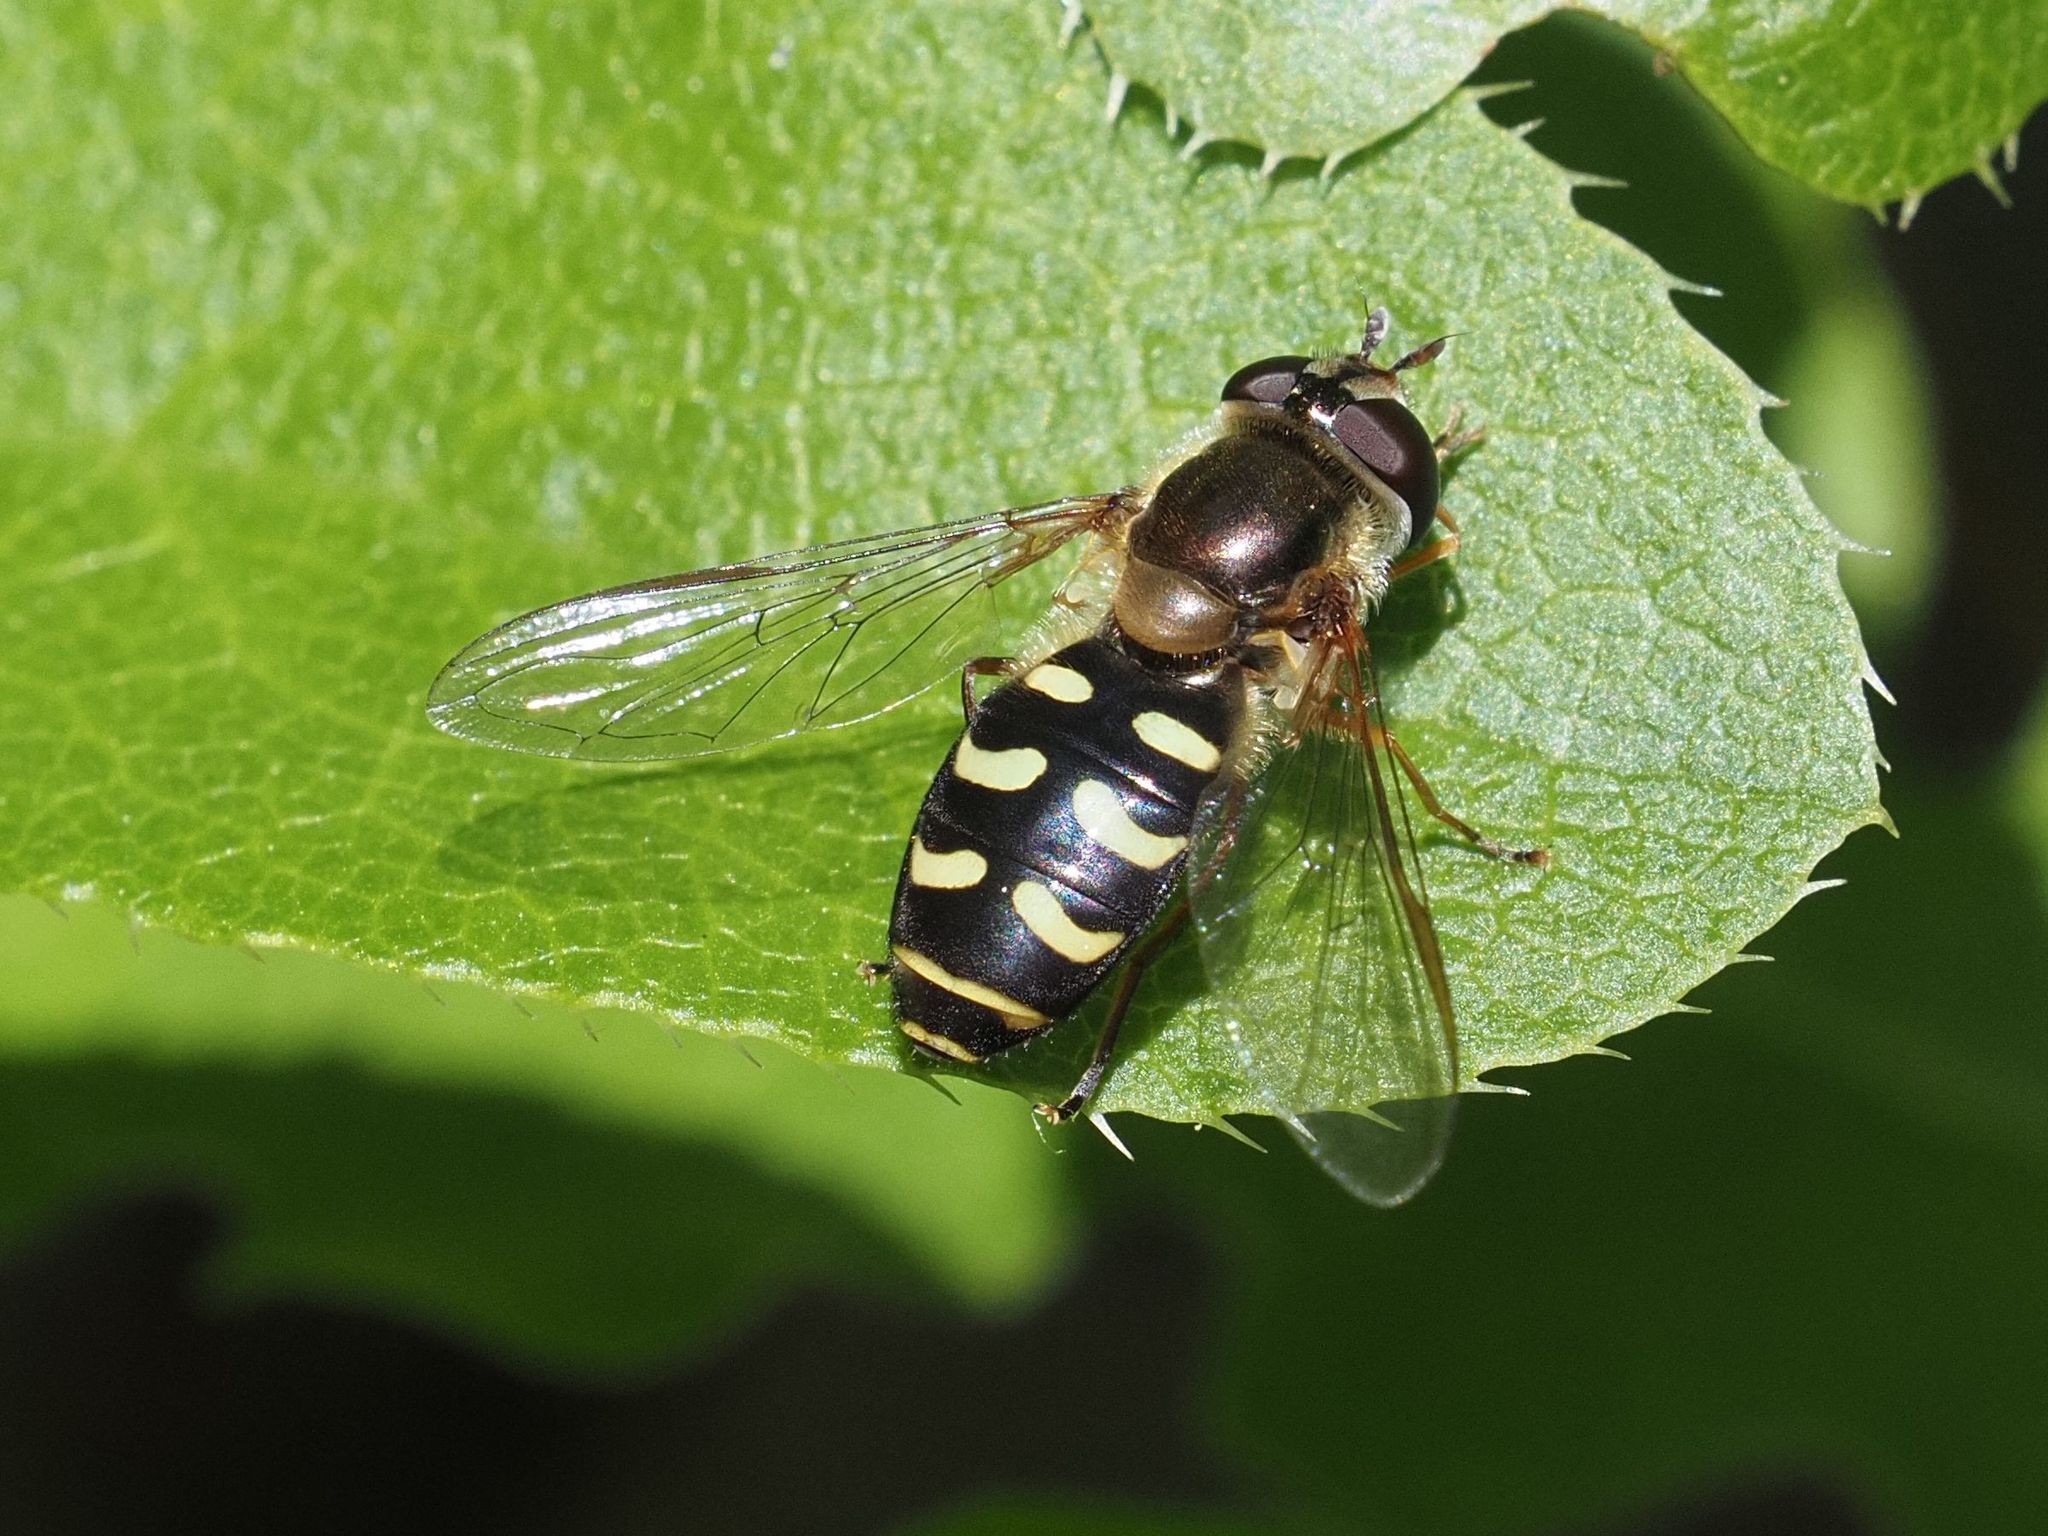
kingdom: Animalia
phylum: Arthropoda
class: Insecta
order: Diptera
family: Syrphidae
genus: Eupeodes
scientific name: Eupeodes luniger
